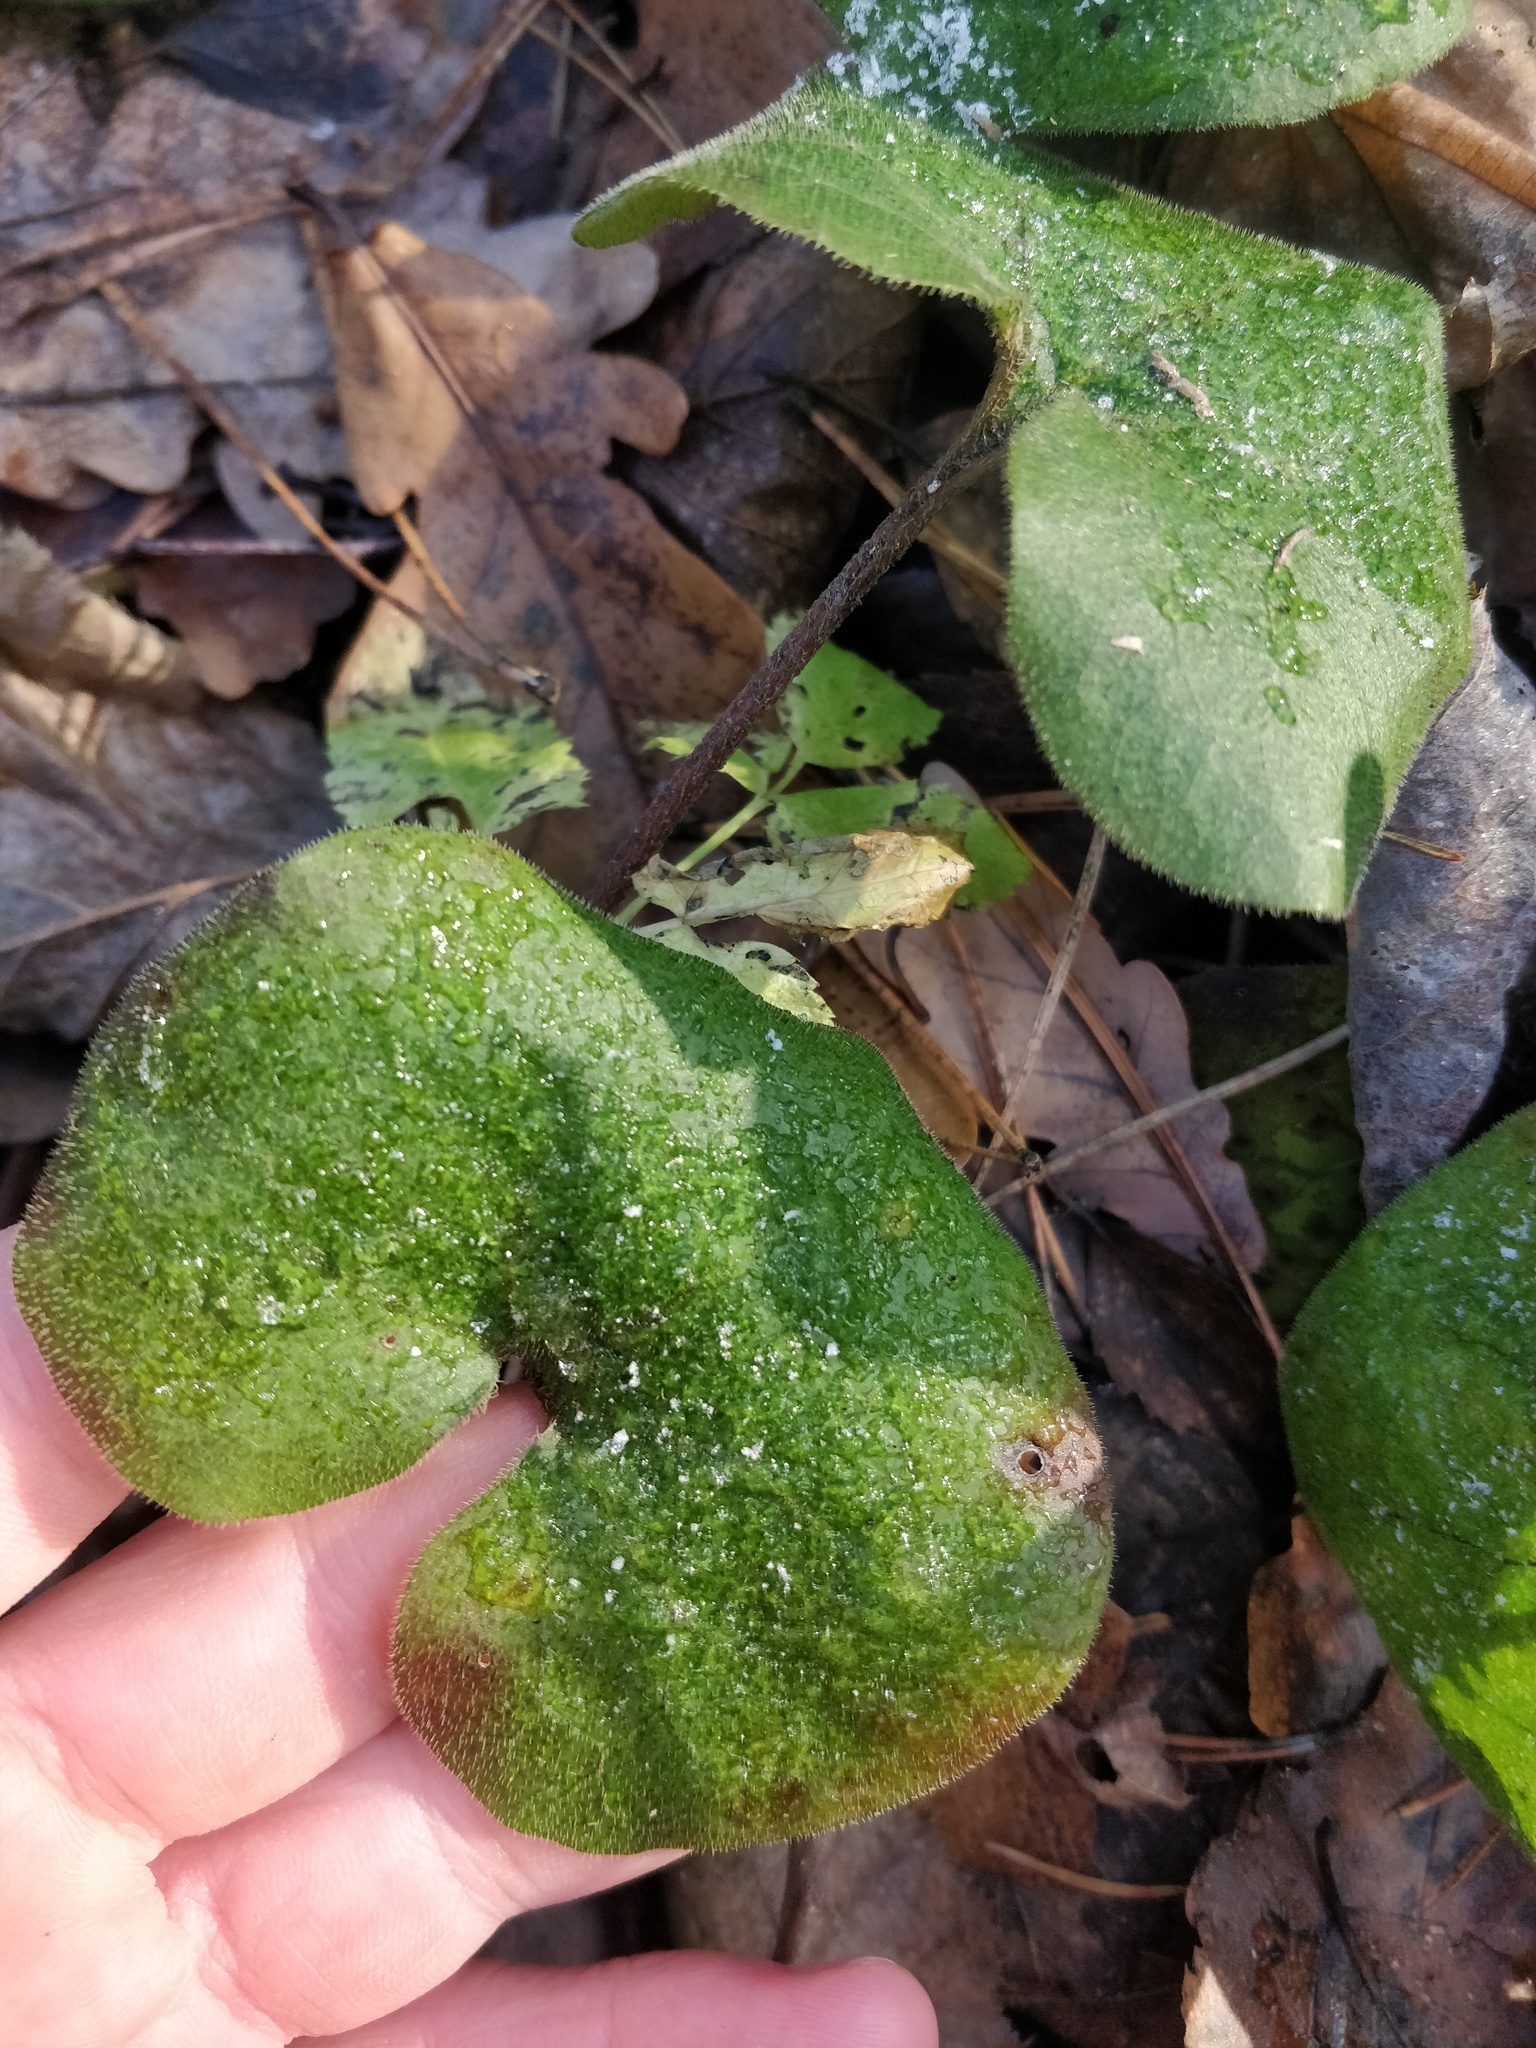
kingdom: Plantae
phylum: Tracheophyta
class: Magnoliopsida
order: Piperales
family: Aristolochiaceae
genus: Asarum
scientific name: Asarum europaeum
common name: Asarabacca
